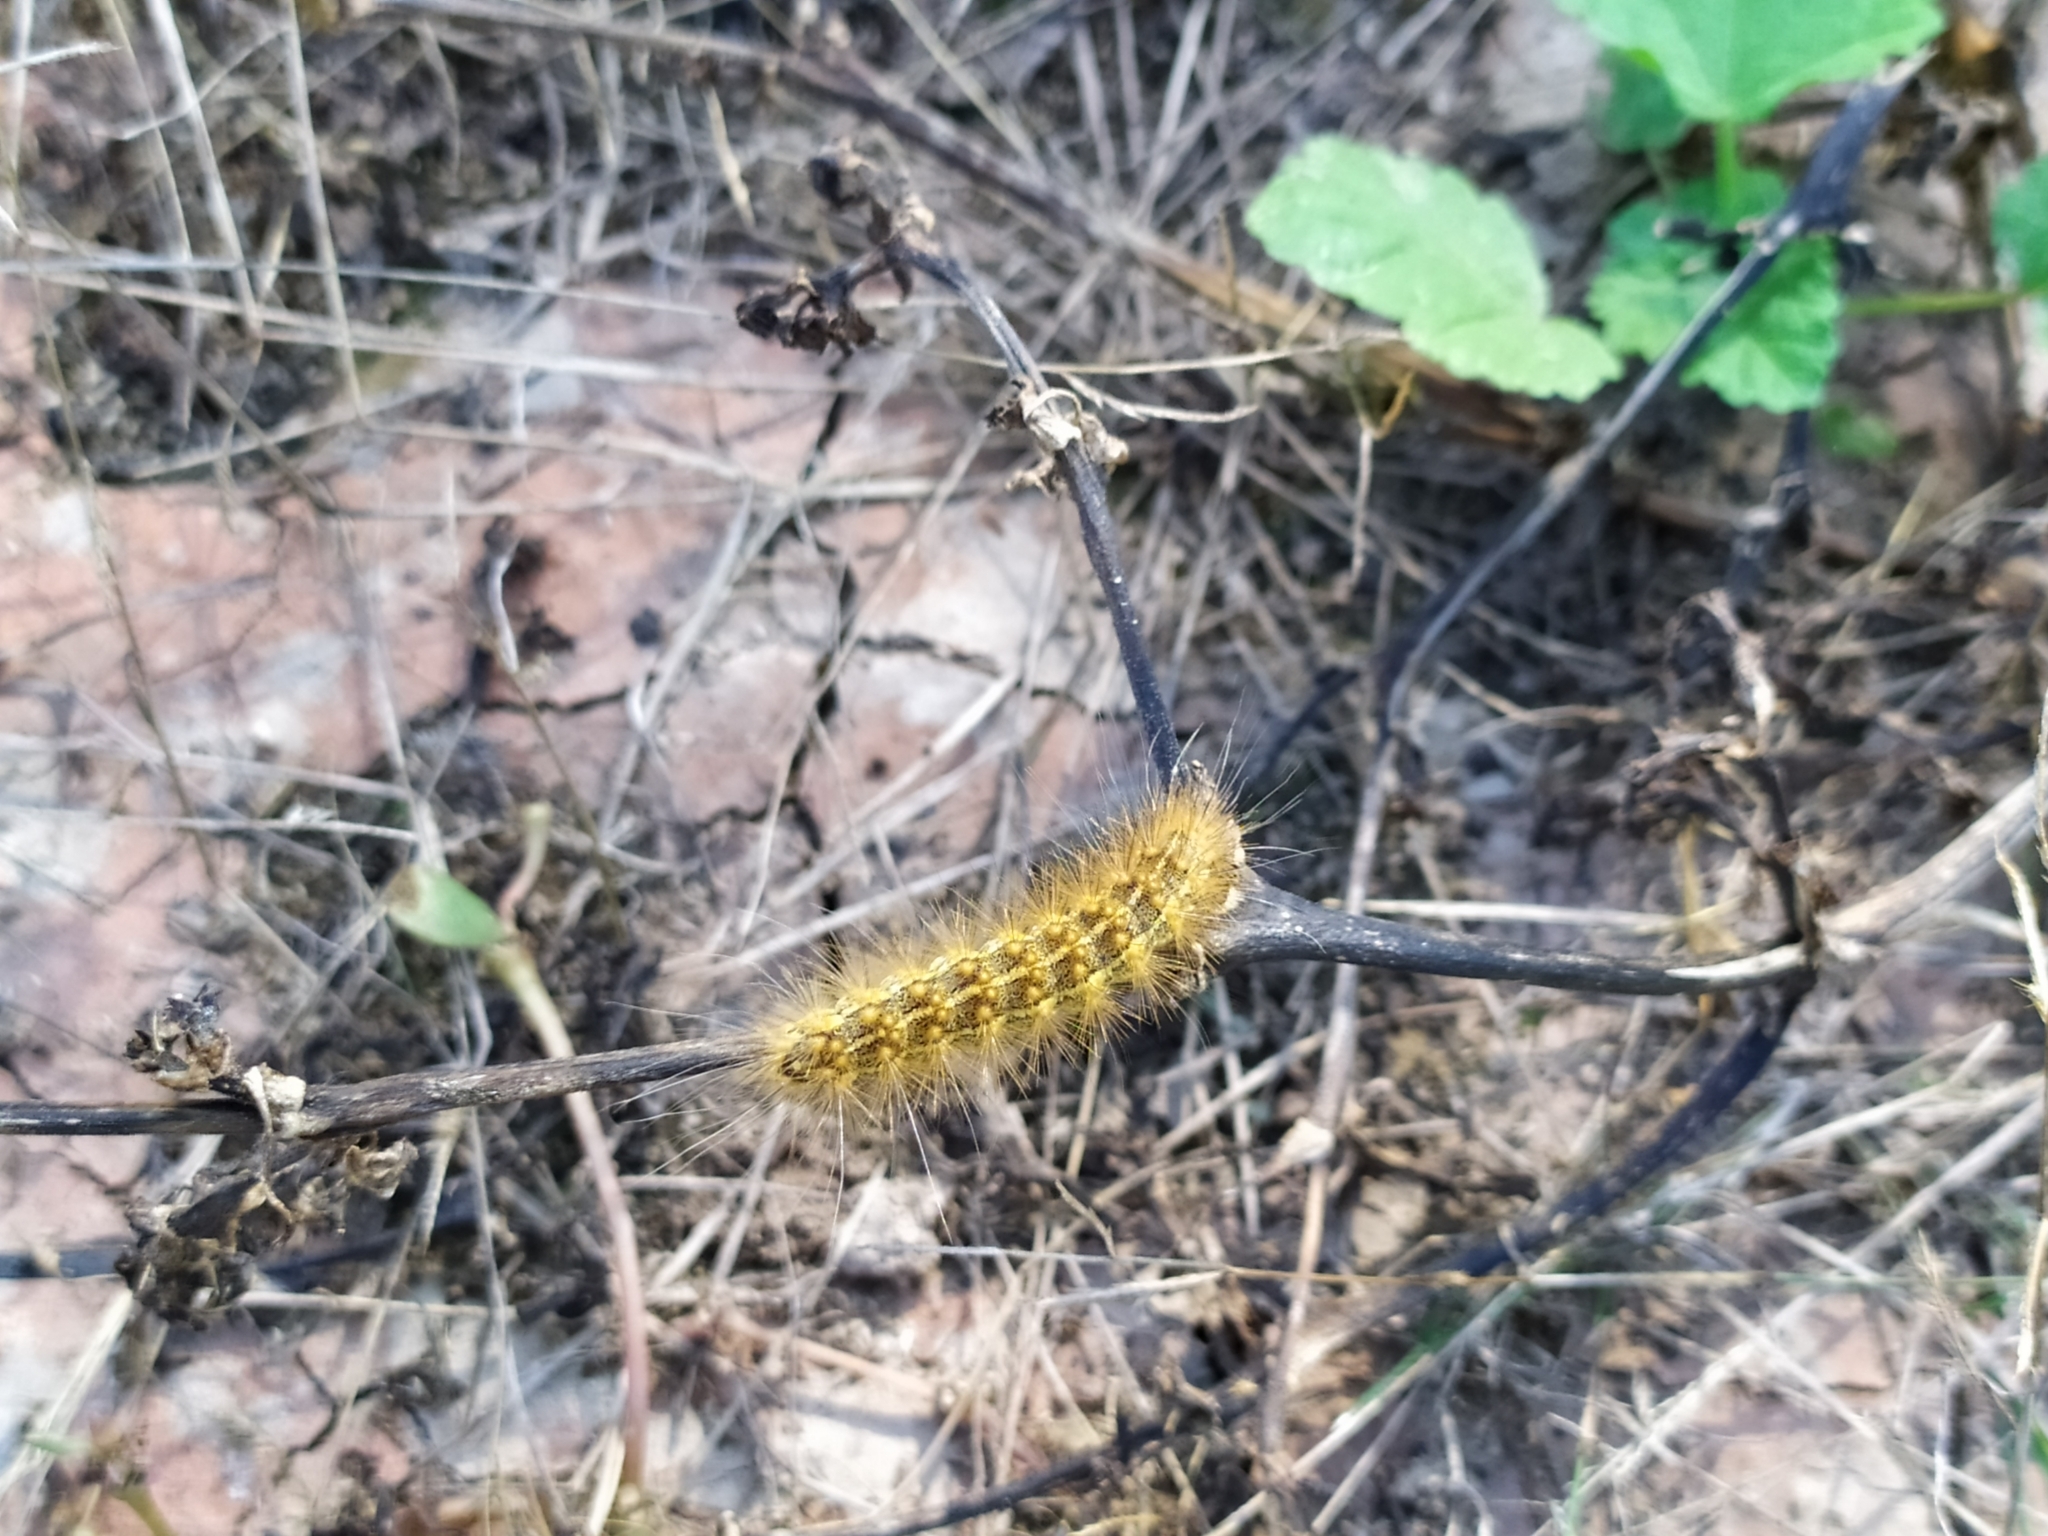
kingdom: Animalia
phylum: Arthropoda
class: Insecta
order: Lepidoptera
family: Erebidae
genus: Estigmene
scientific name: Estigmene acrea
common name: Salt marsh moth
